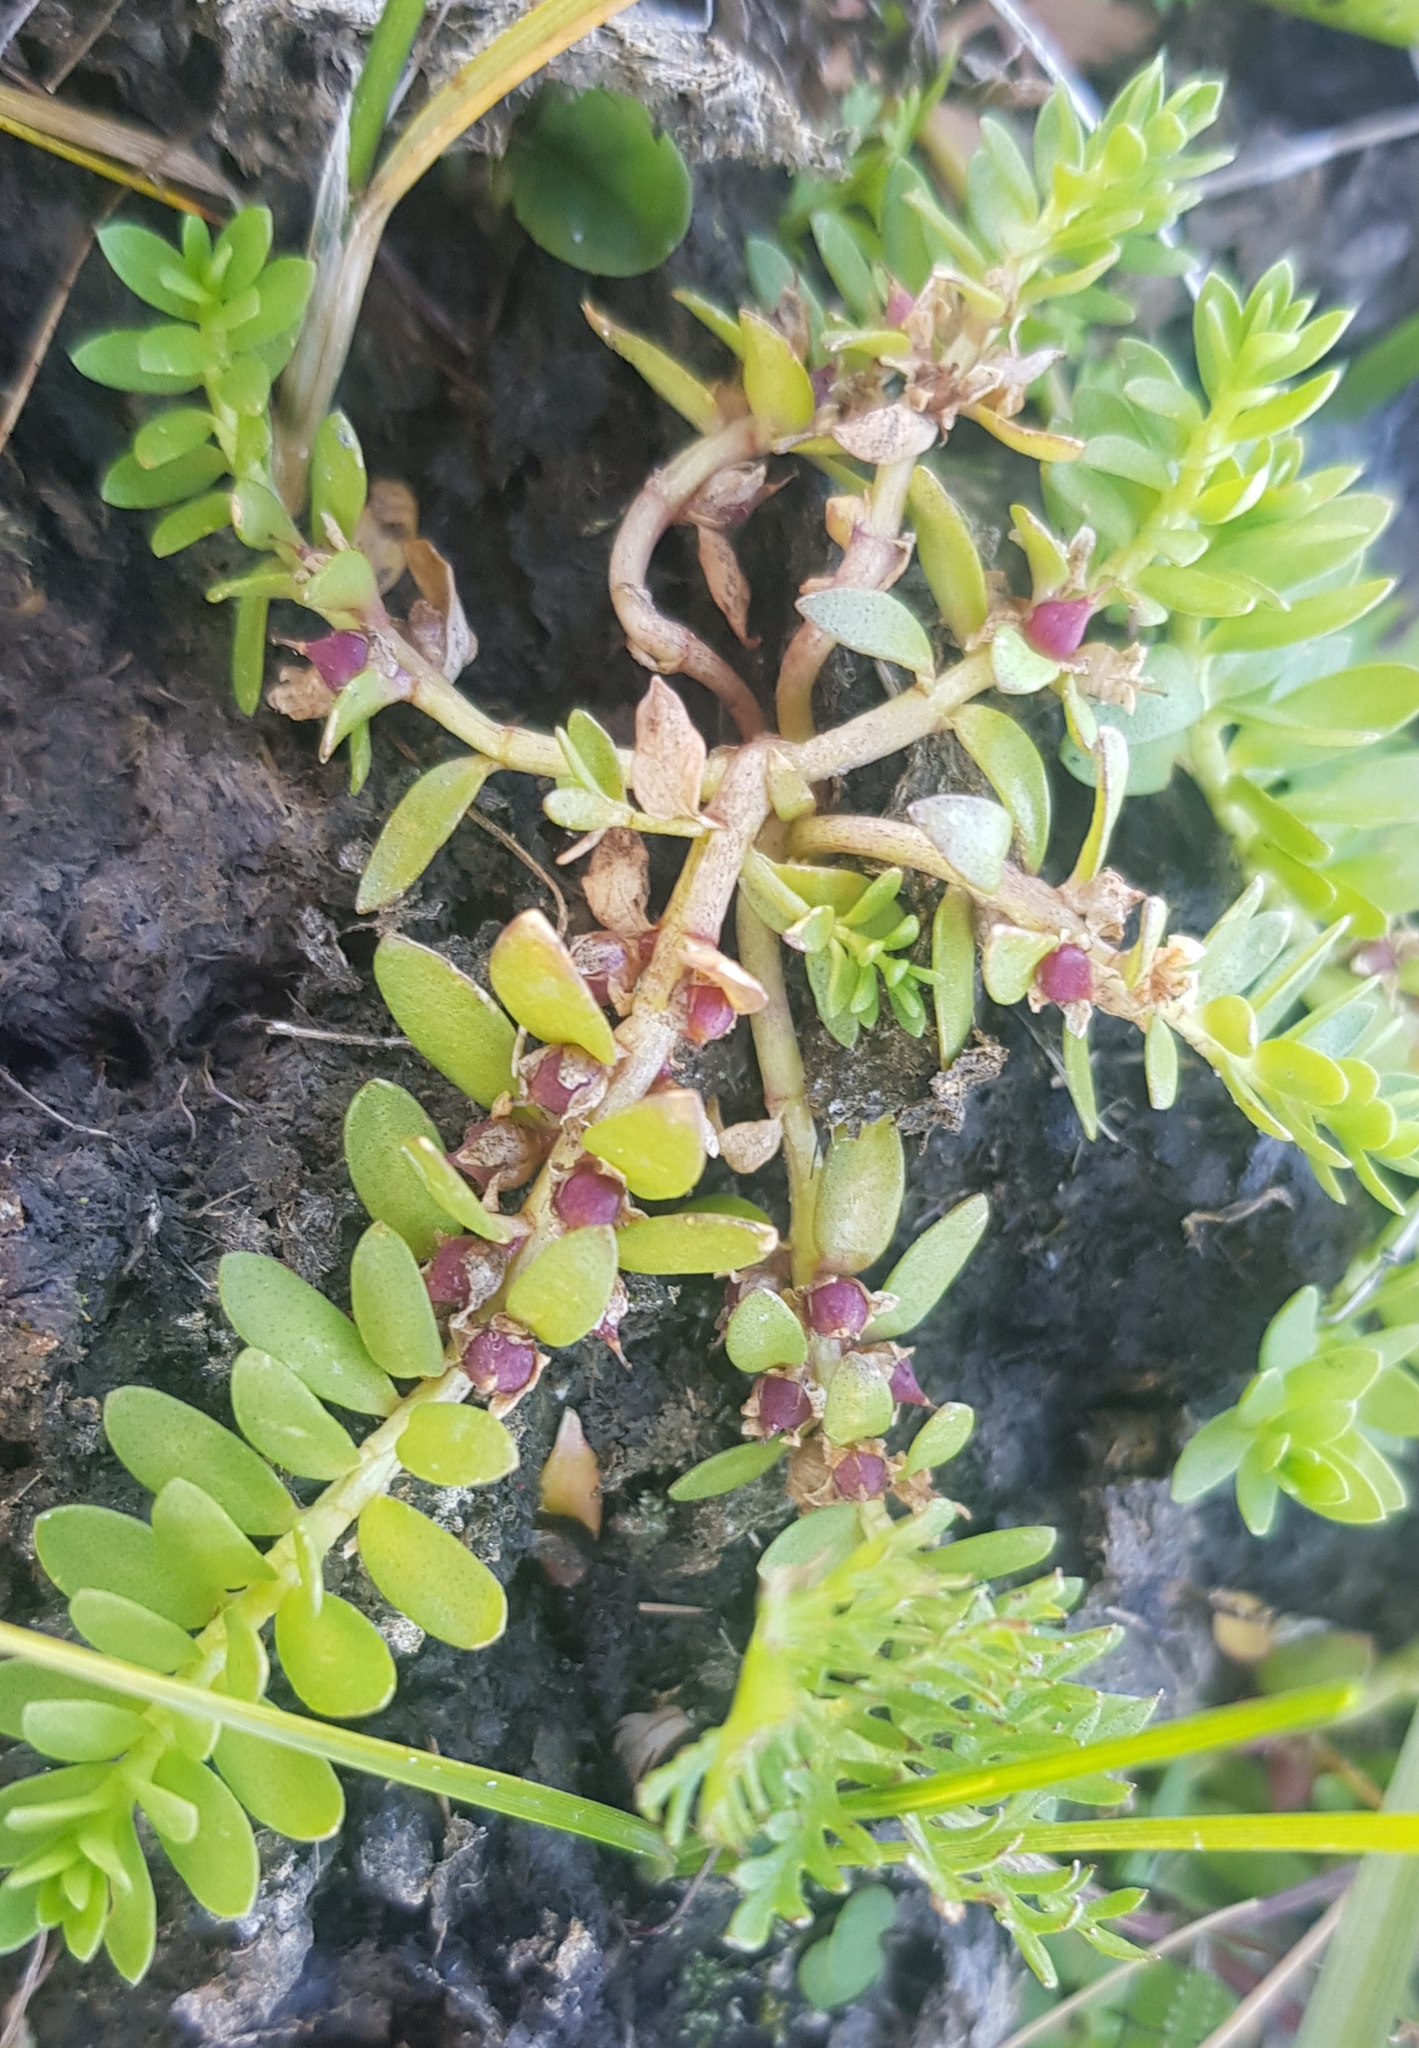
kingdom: Plantae
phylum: Tracheophyta
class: Magnoliopsida
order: Ericales
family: Primulaceae
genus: Lysimachia
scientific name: Lysimachia maritima
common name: Sea milkwort
